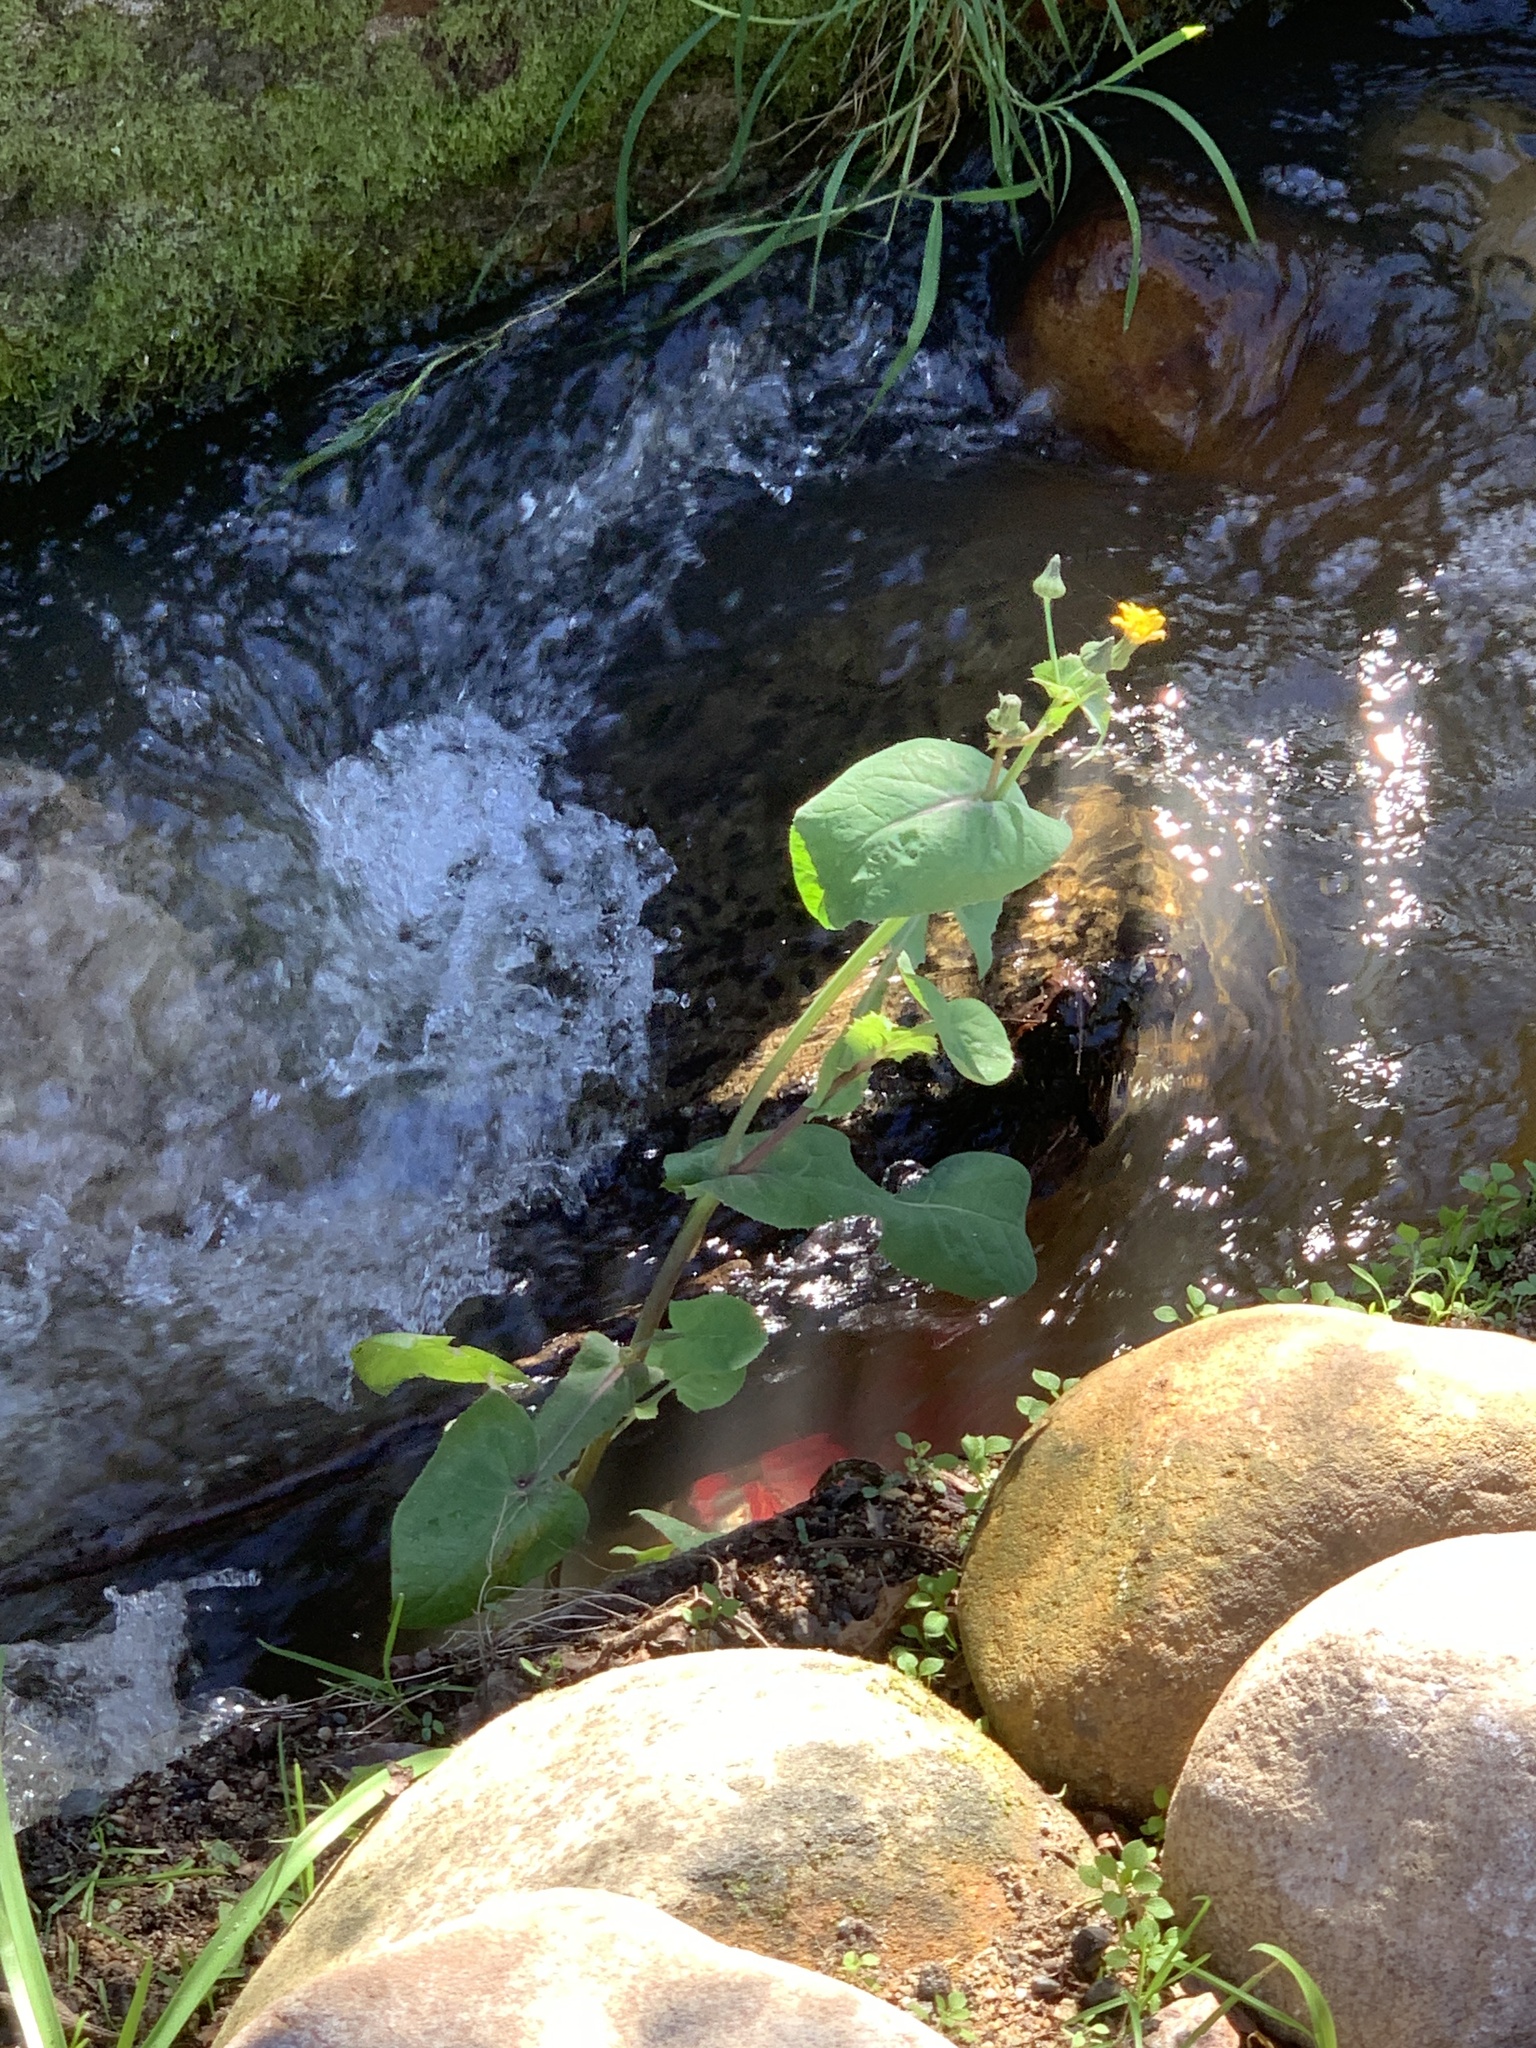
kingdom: Plantae
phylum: Tracheophyta
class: Magnoliopsida
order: Asterales
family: Asteraceae
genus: Sonchus
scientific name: Sonchus oleraceus
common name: Common sowthistle
